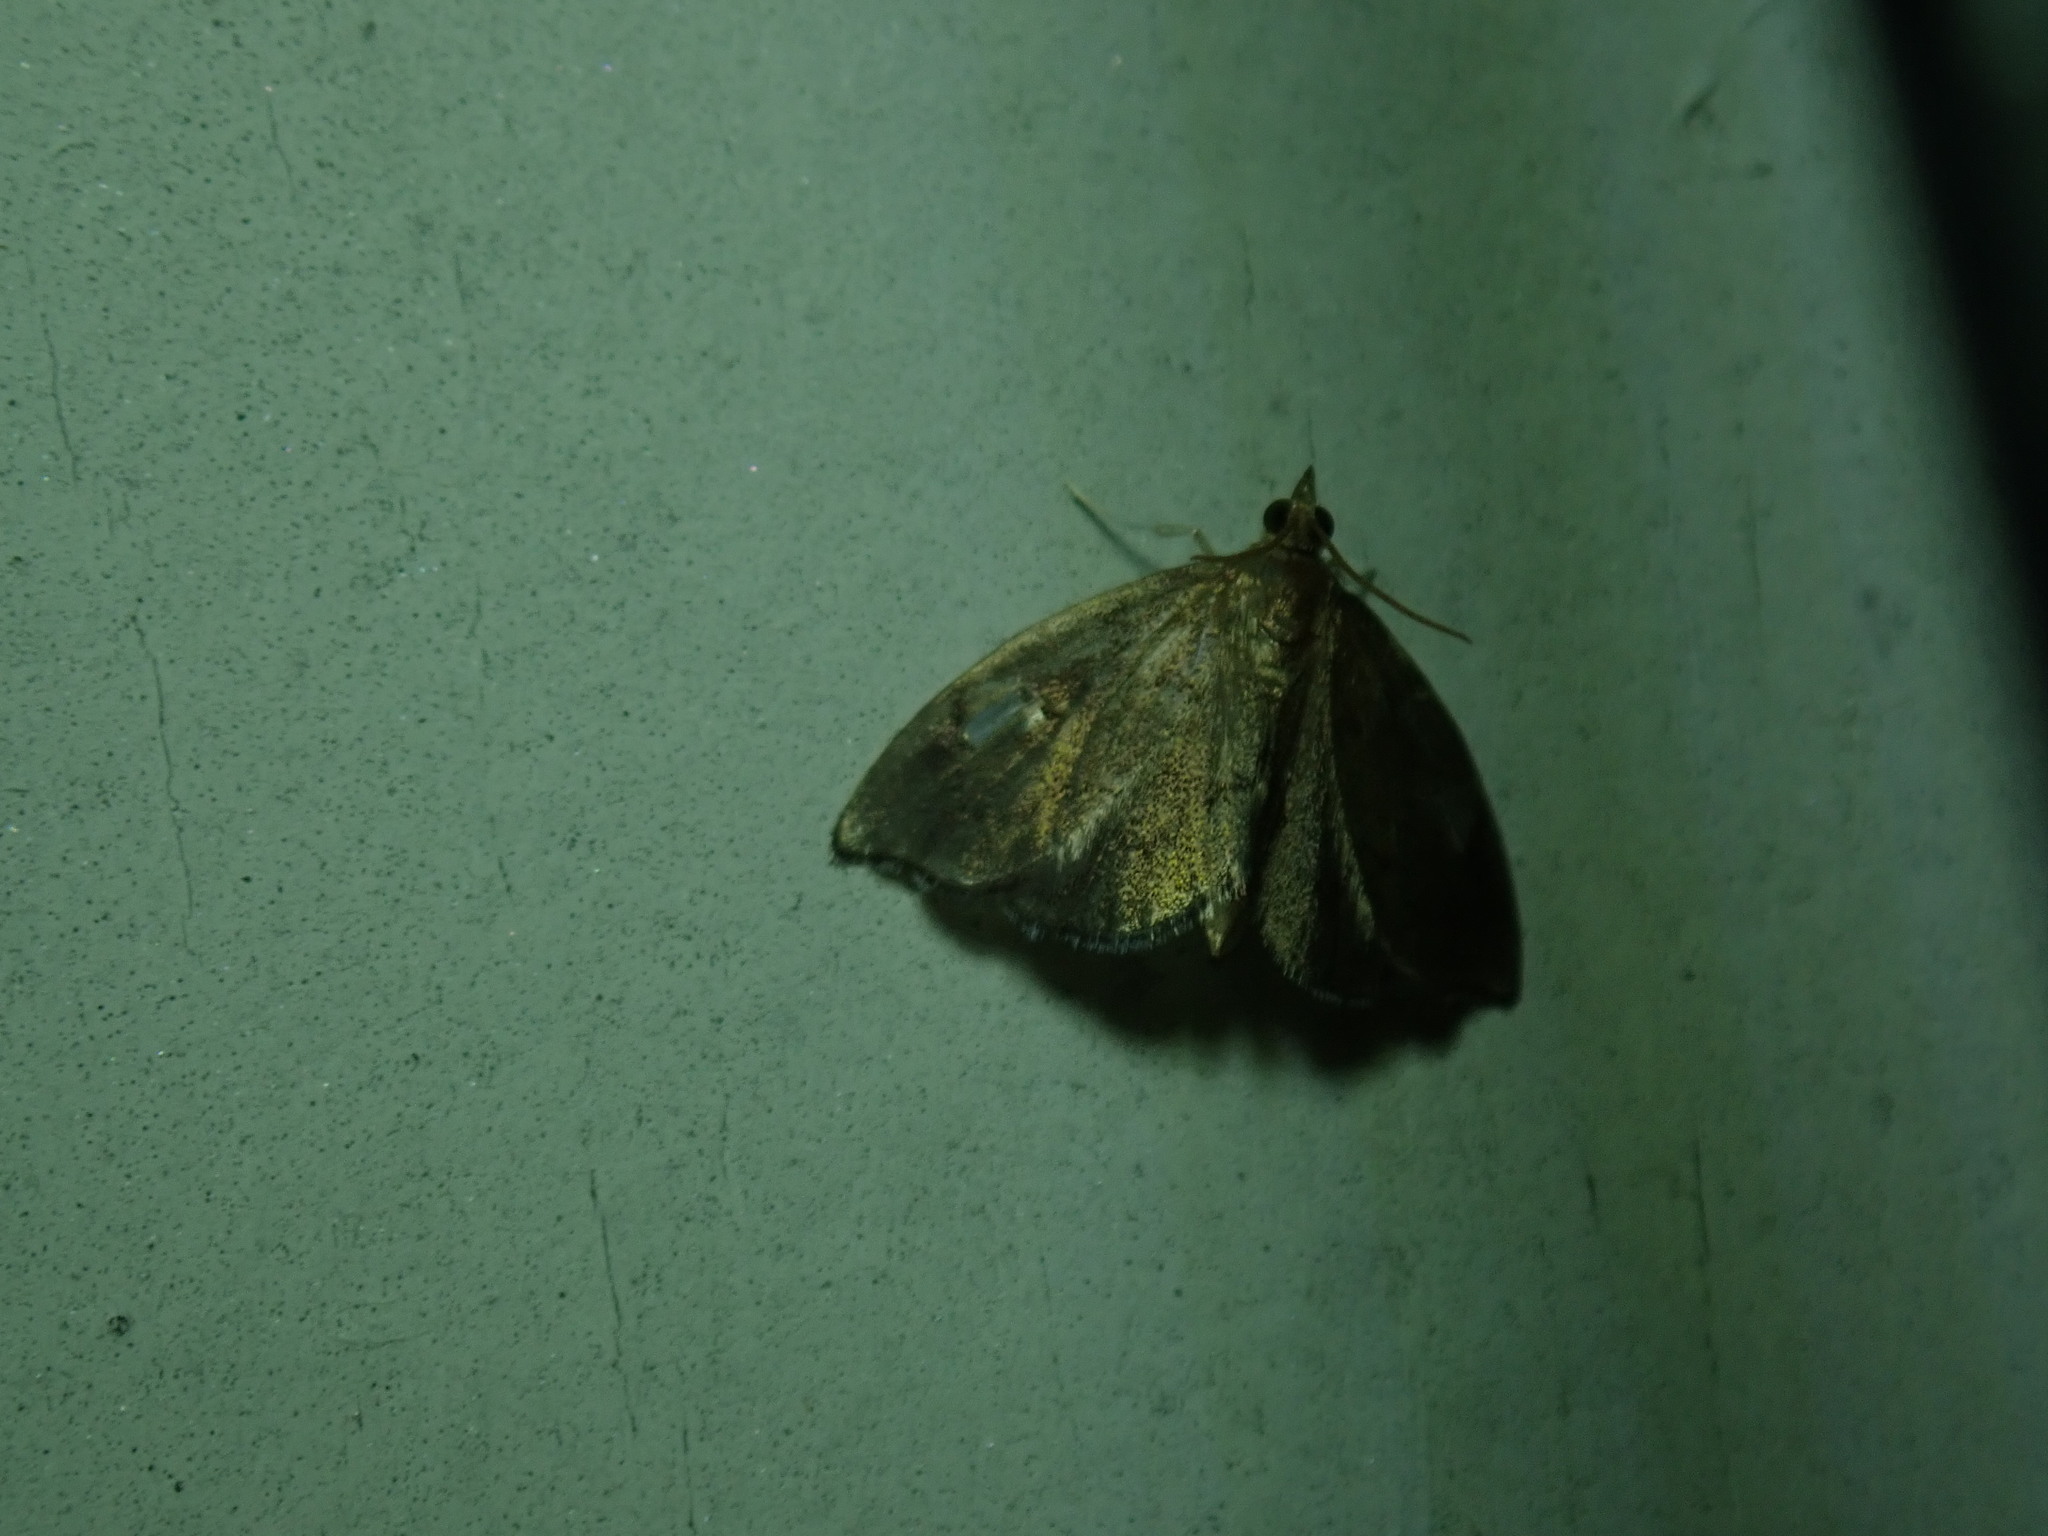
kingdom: Animalia
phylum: Arthropoda
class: Insecta
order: Lepidoptera
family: Crambidae
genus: Perispasta
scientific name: Perispasta caeculalis
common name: Titian peale's moth
